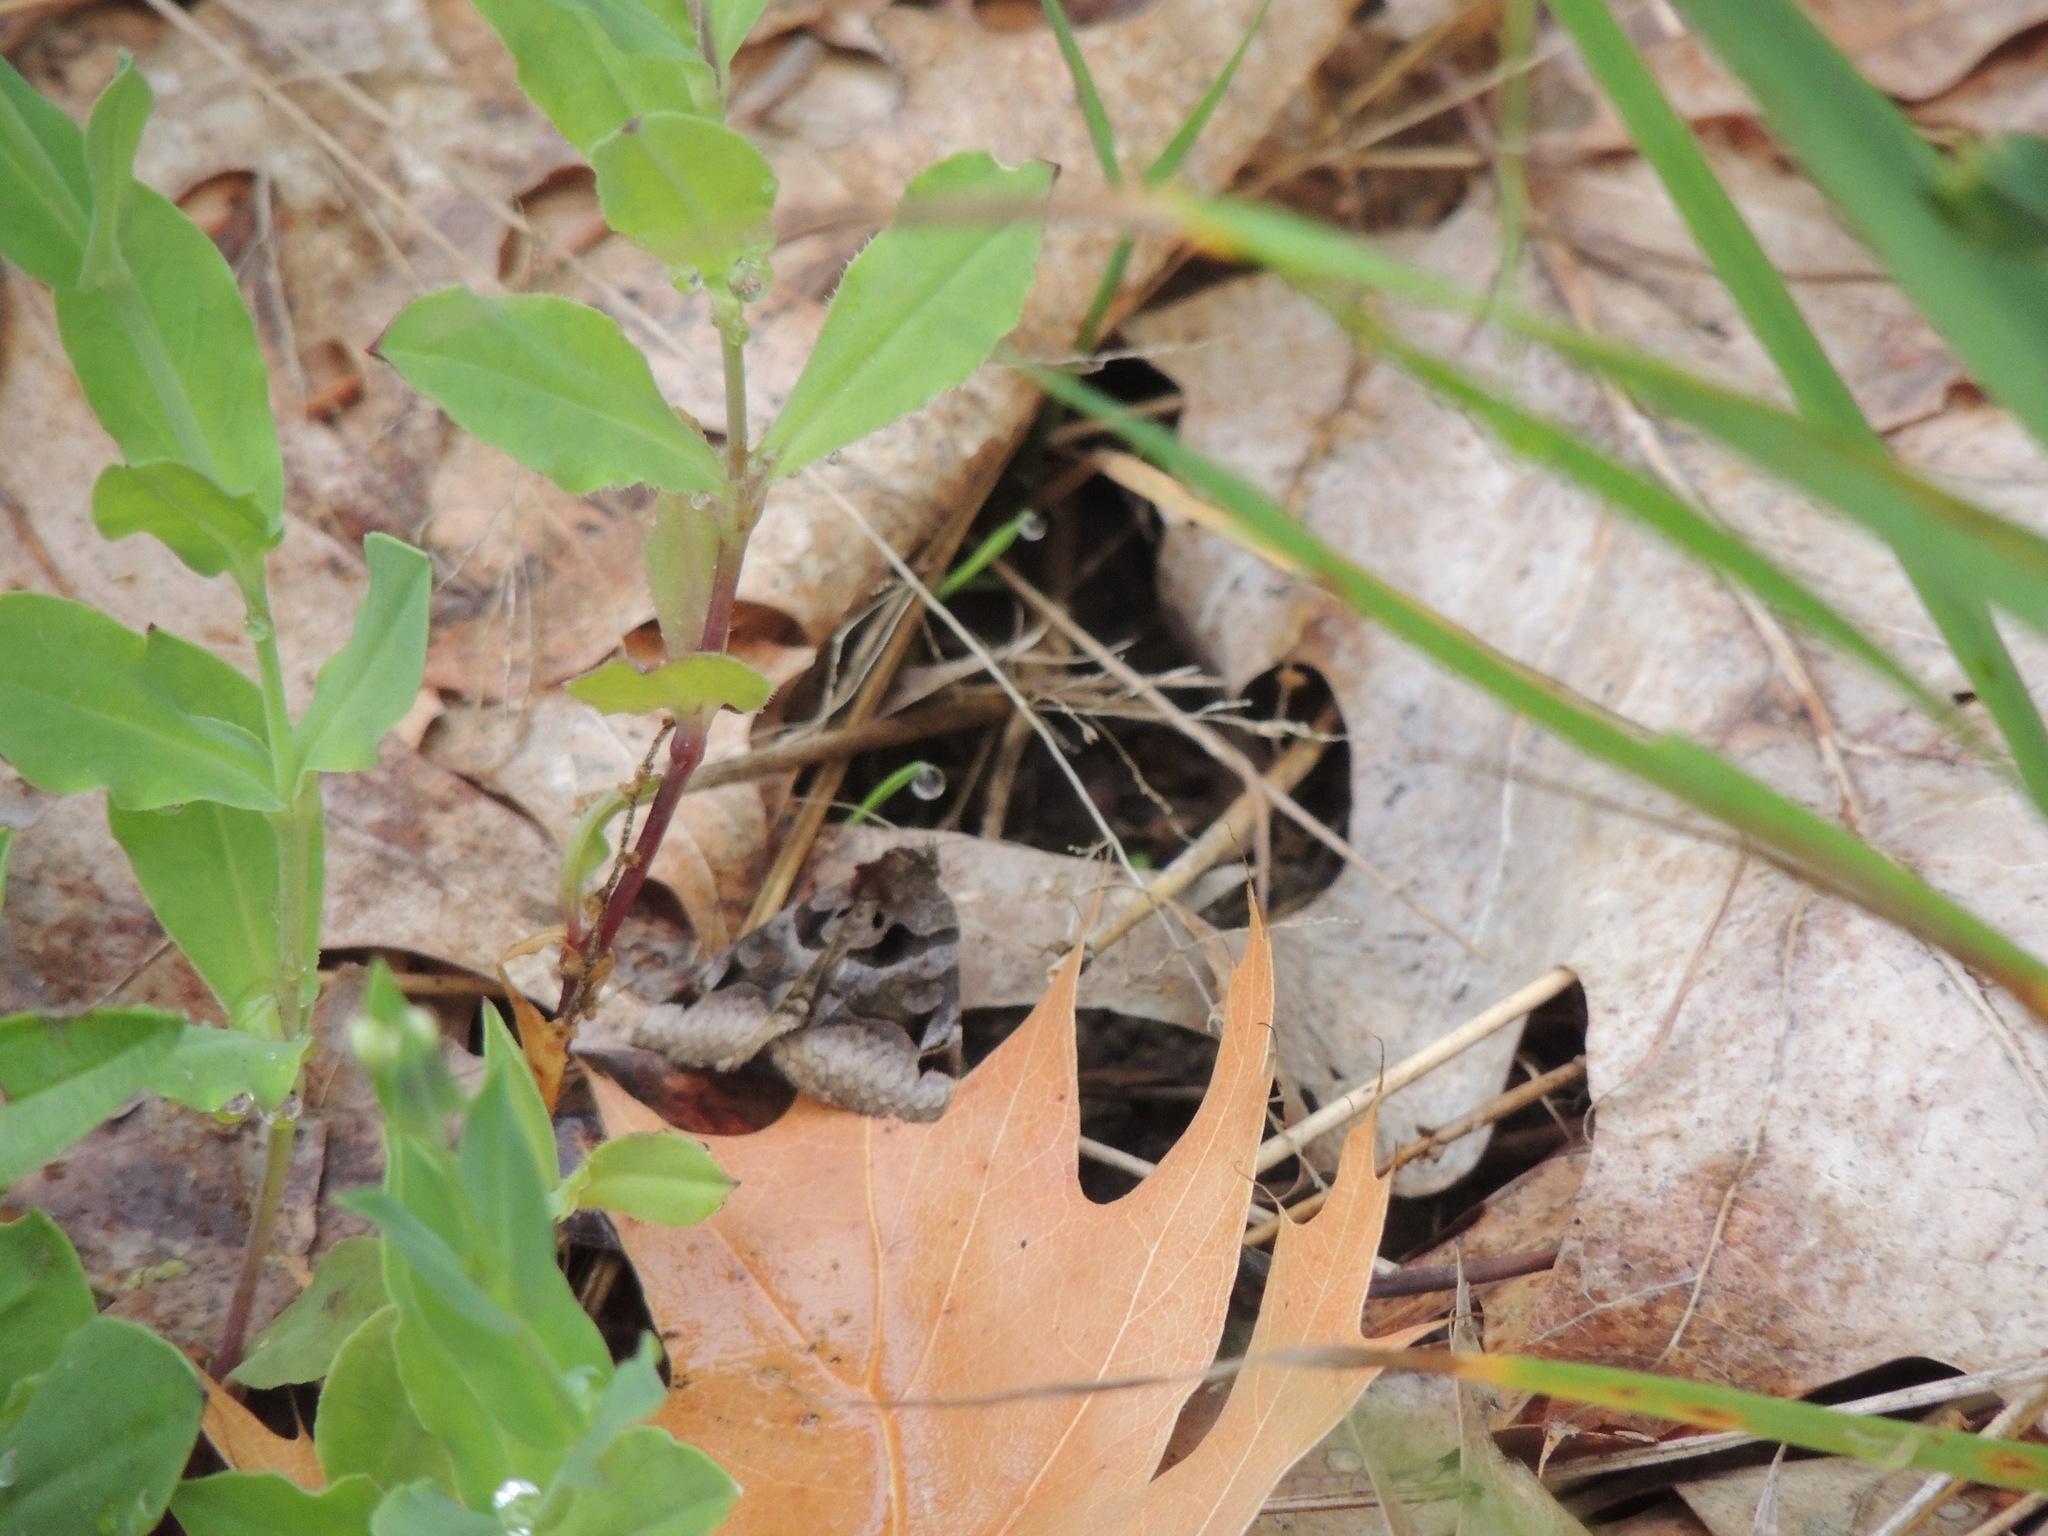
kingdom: Animalia
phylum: Arthropoda
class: Insecta
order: Lepidoptera
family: Erebidae
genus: Euclidia
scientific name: Euclidia cuspidea
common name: Toothed somberwing
